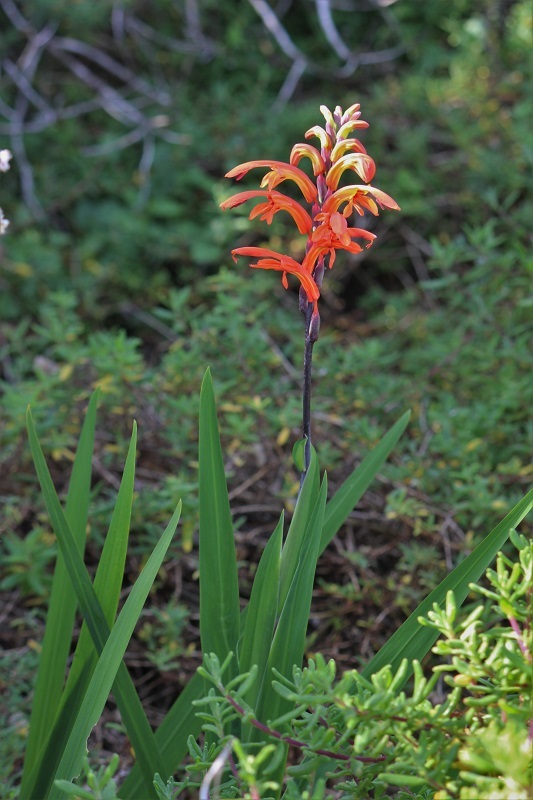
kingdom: Plantae
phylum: Tracheophyta
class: Liliopsida
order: Asparagales
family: Iridaceae
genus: Chasmanthe
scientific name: Chasmanthe aethiopica
